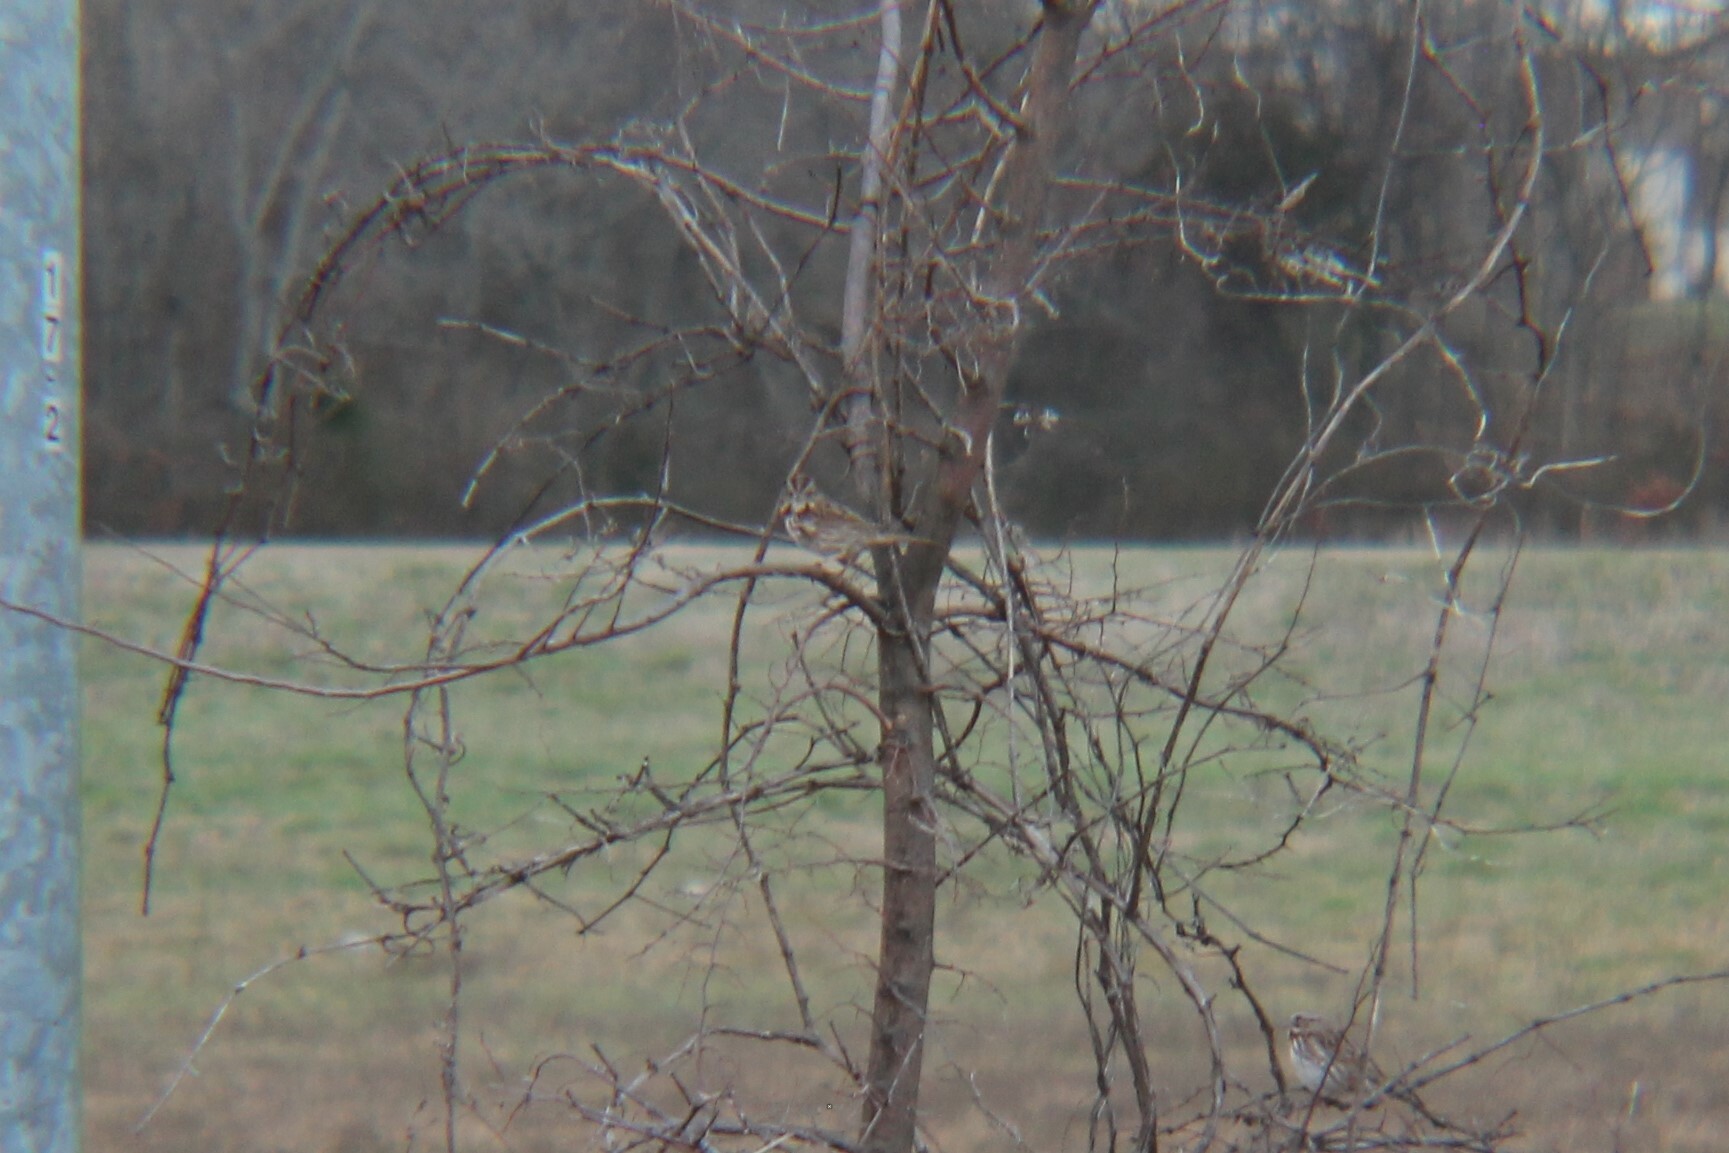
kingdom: Animalia
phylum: Chordata
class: Aves
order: Passeriformes
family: Passerellidae
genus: Melospiza
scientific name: Melospiza melodia
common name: Song sparrow
